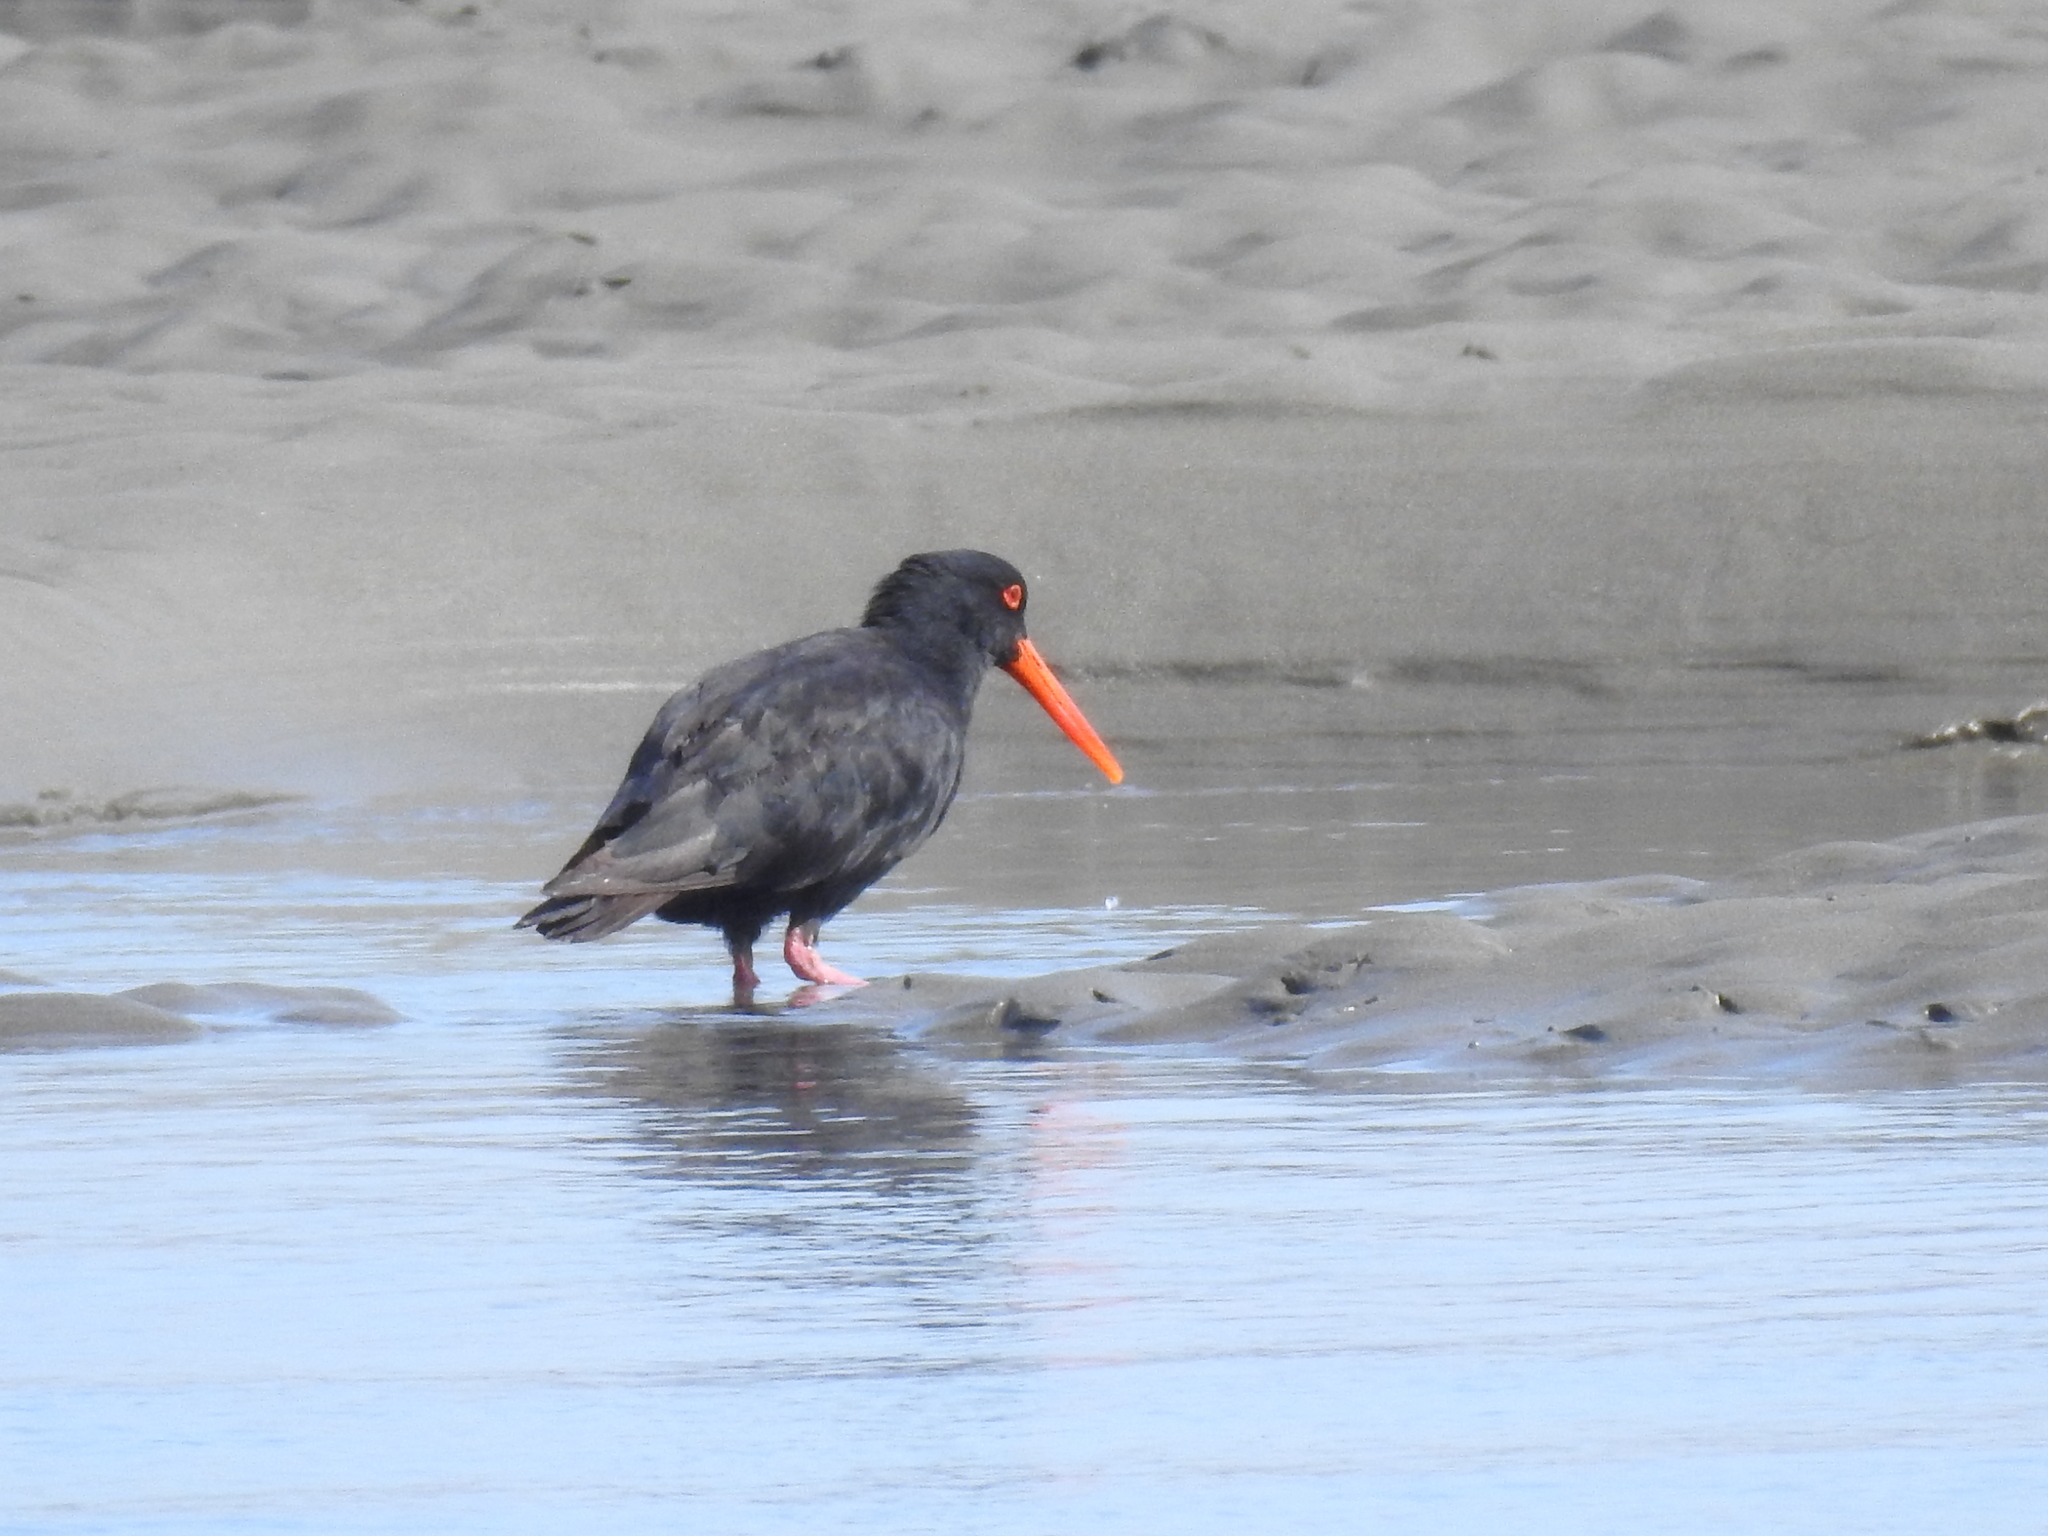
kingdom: Animalia
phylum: Chordata
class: Aves
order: Charadriiformes
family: Haematopodidae
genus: Haematopus
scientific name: Haematopus unicolor
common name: Variable oystercatcher
